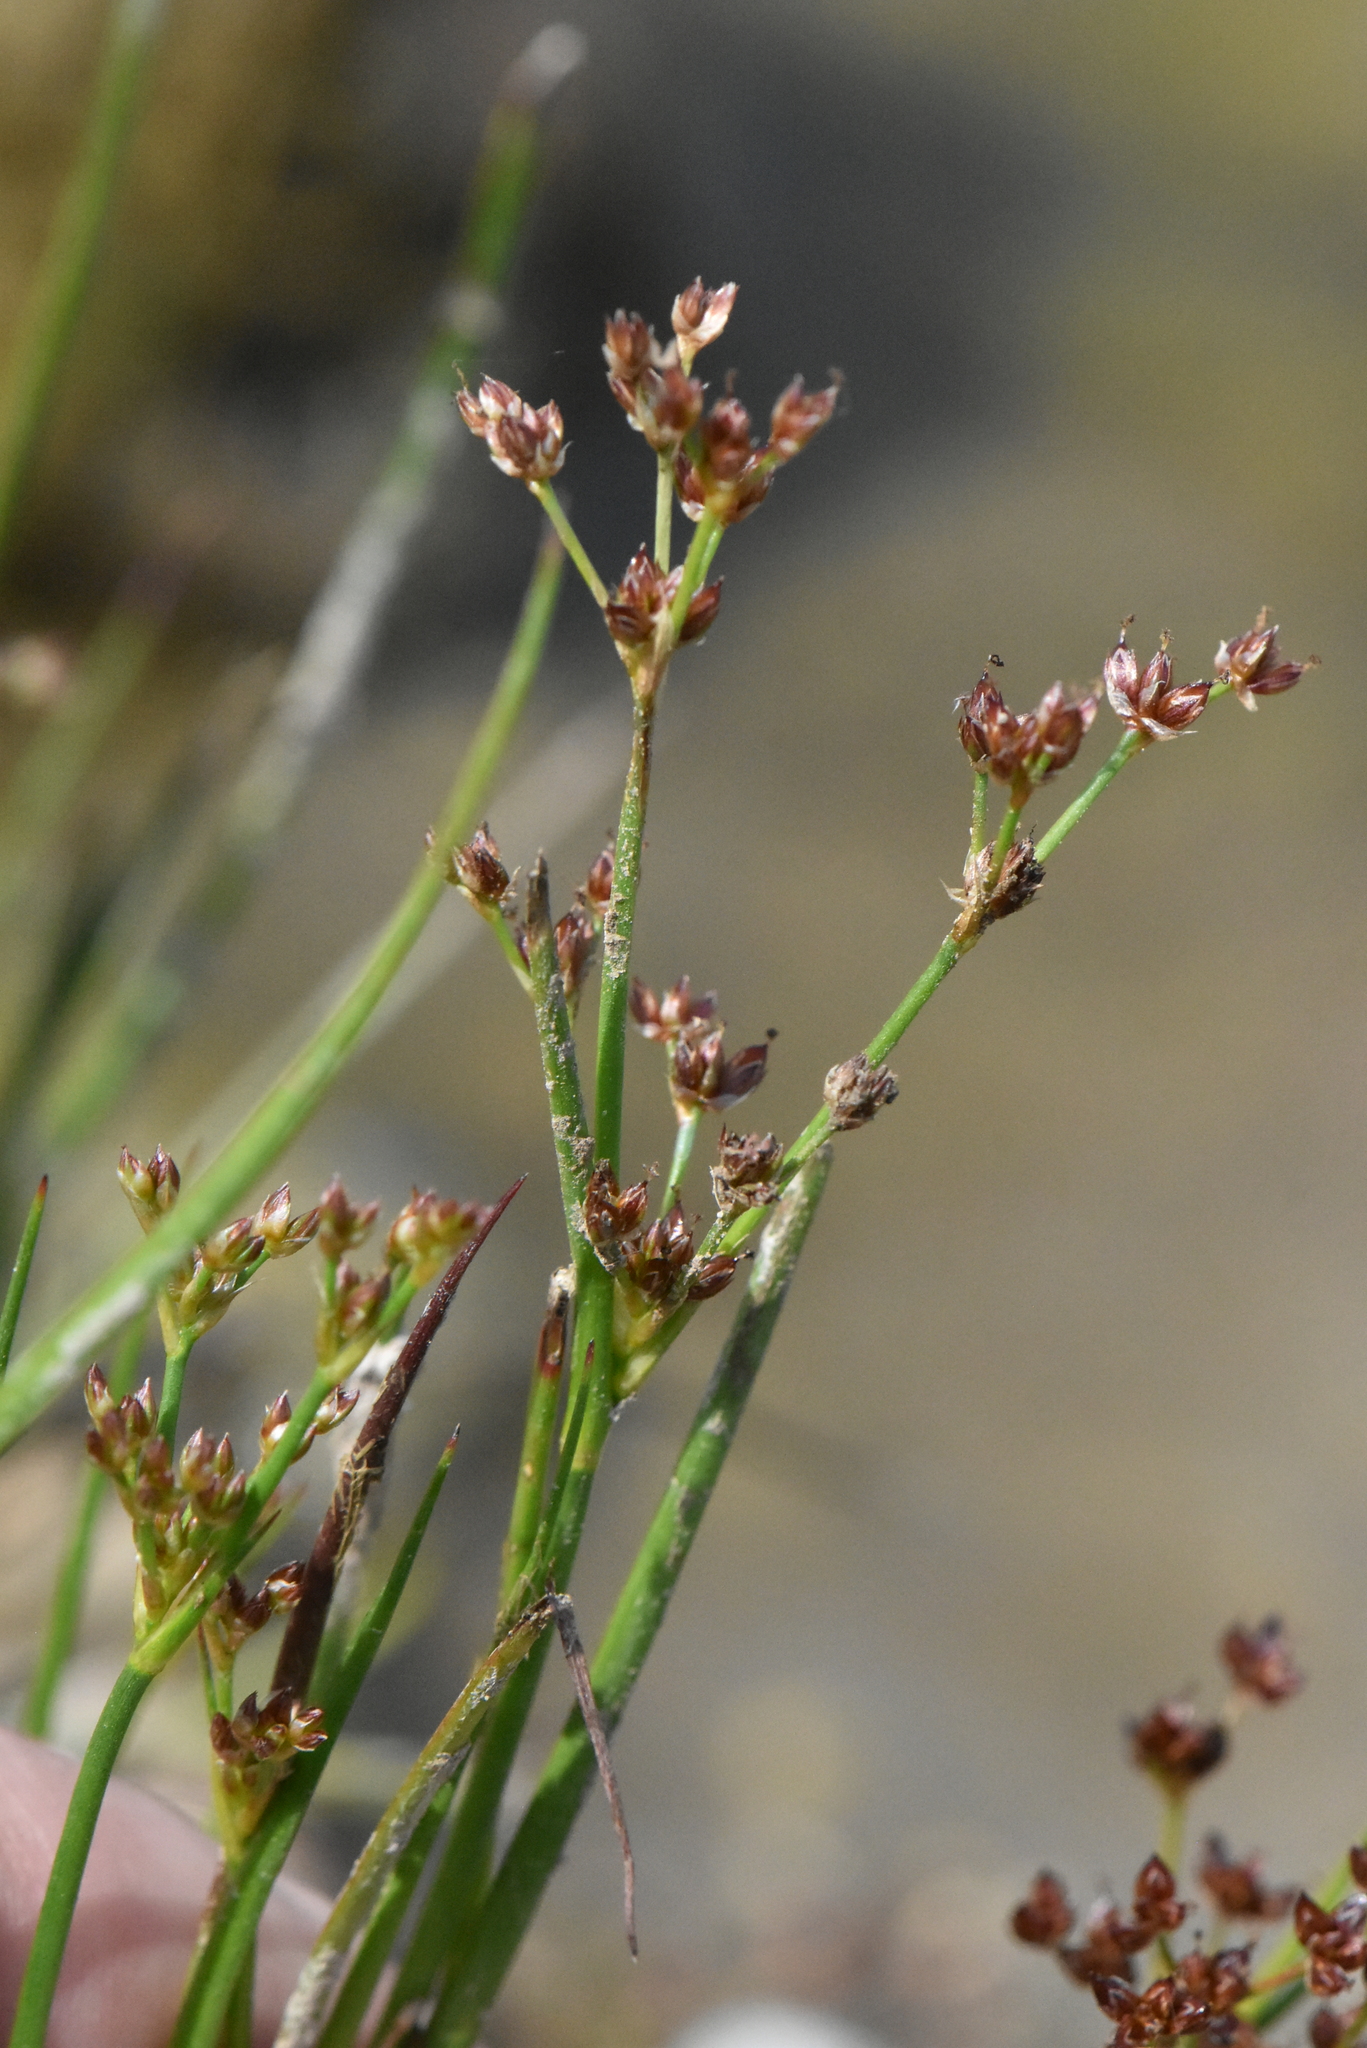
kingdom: Plantae
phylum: Tracheophyta
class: Liliopsida
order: Poales
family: Juncaceae
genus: Juncus
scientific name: Juncus articulatus
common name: Jointed rush
